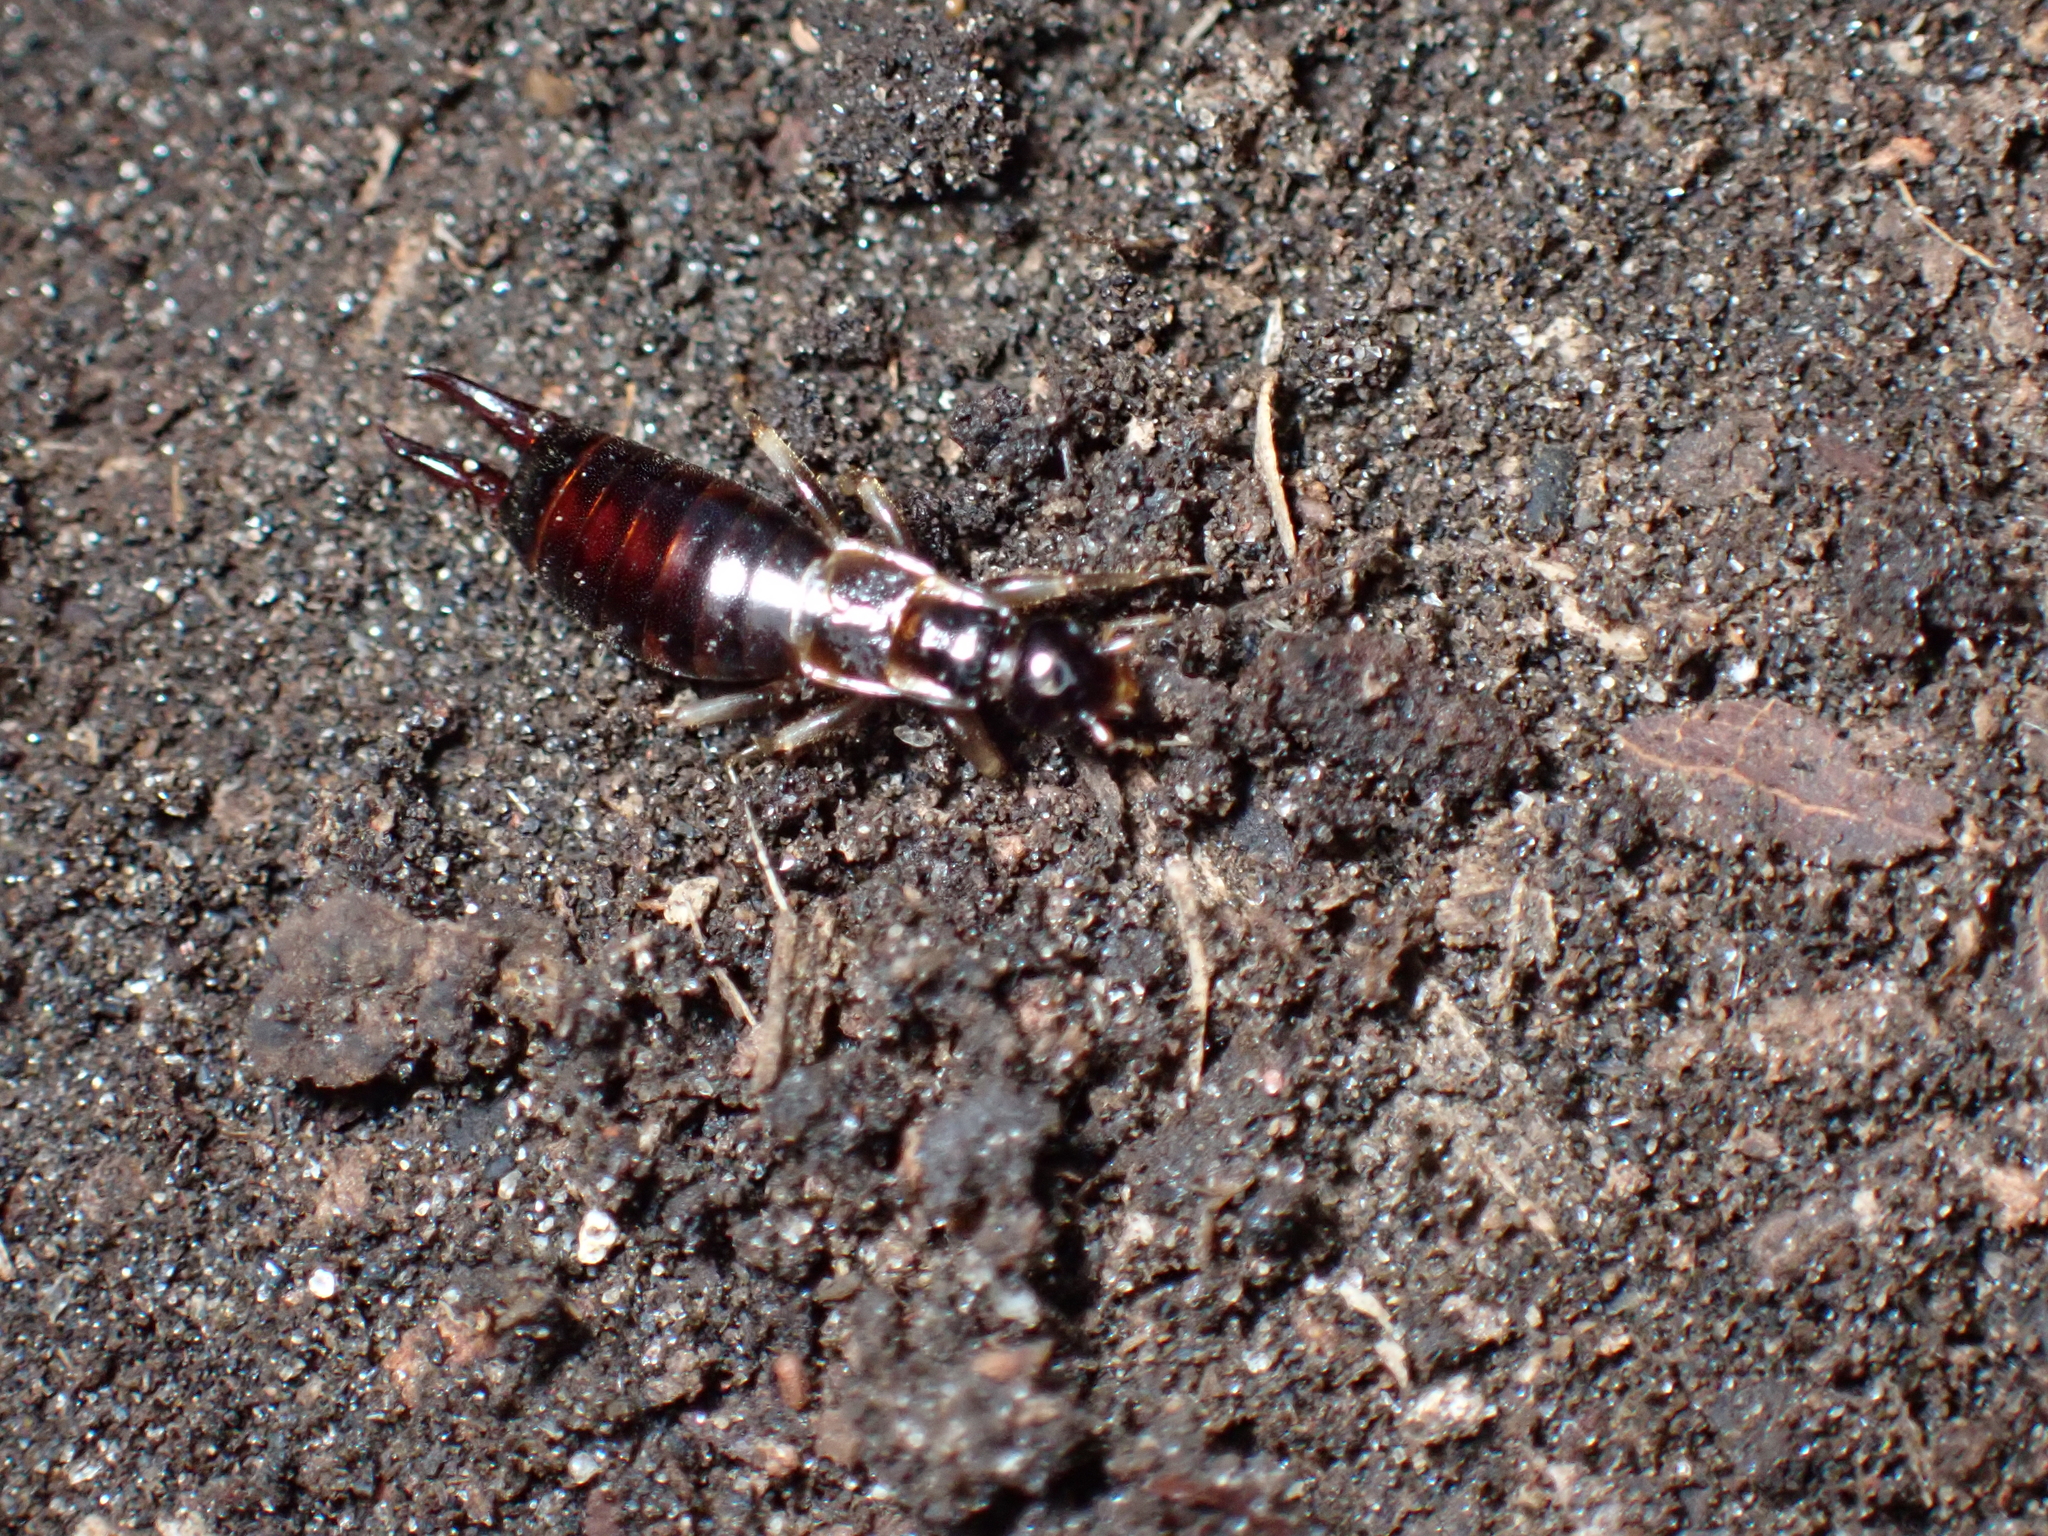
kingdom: Animalia
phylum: Arthropoda
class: Insecta
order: Dermaptera
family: Spongiphoridae
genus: Nesogaster
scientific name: Nesogaster bakeri
